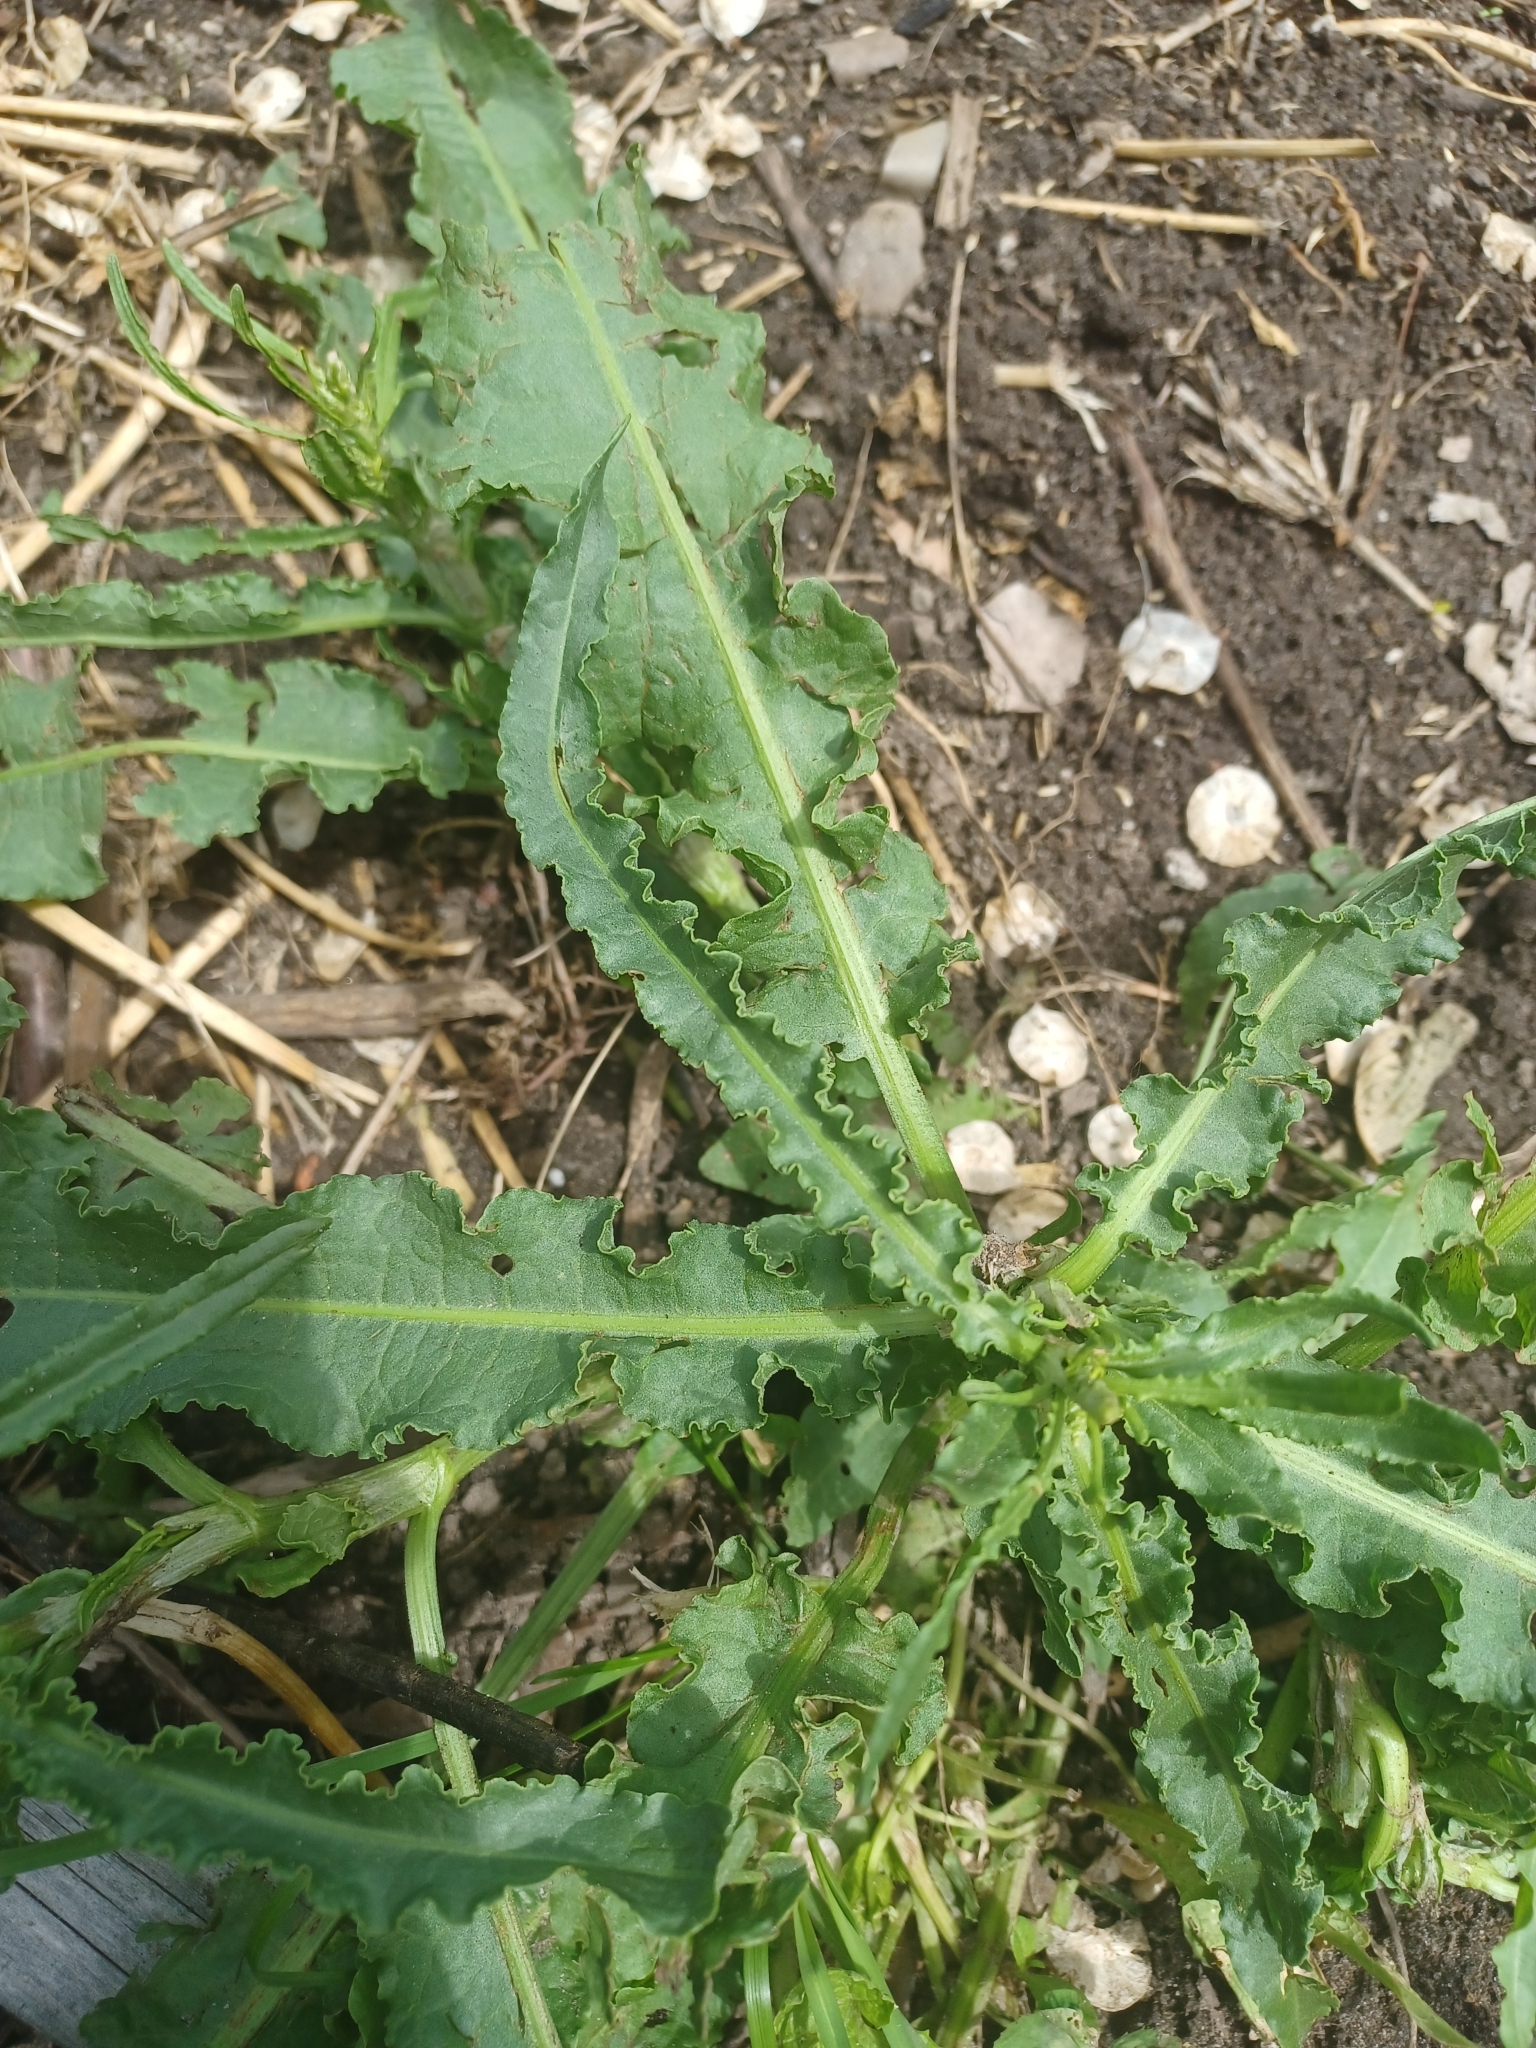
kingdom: Plantae
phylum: Tracheophyta
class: Magnoliopsida
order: Caryophyllales
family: Polygonaceae
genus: Rumex
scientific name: Rumex crispus
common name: Curled dock
